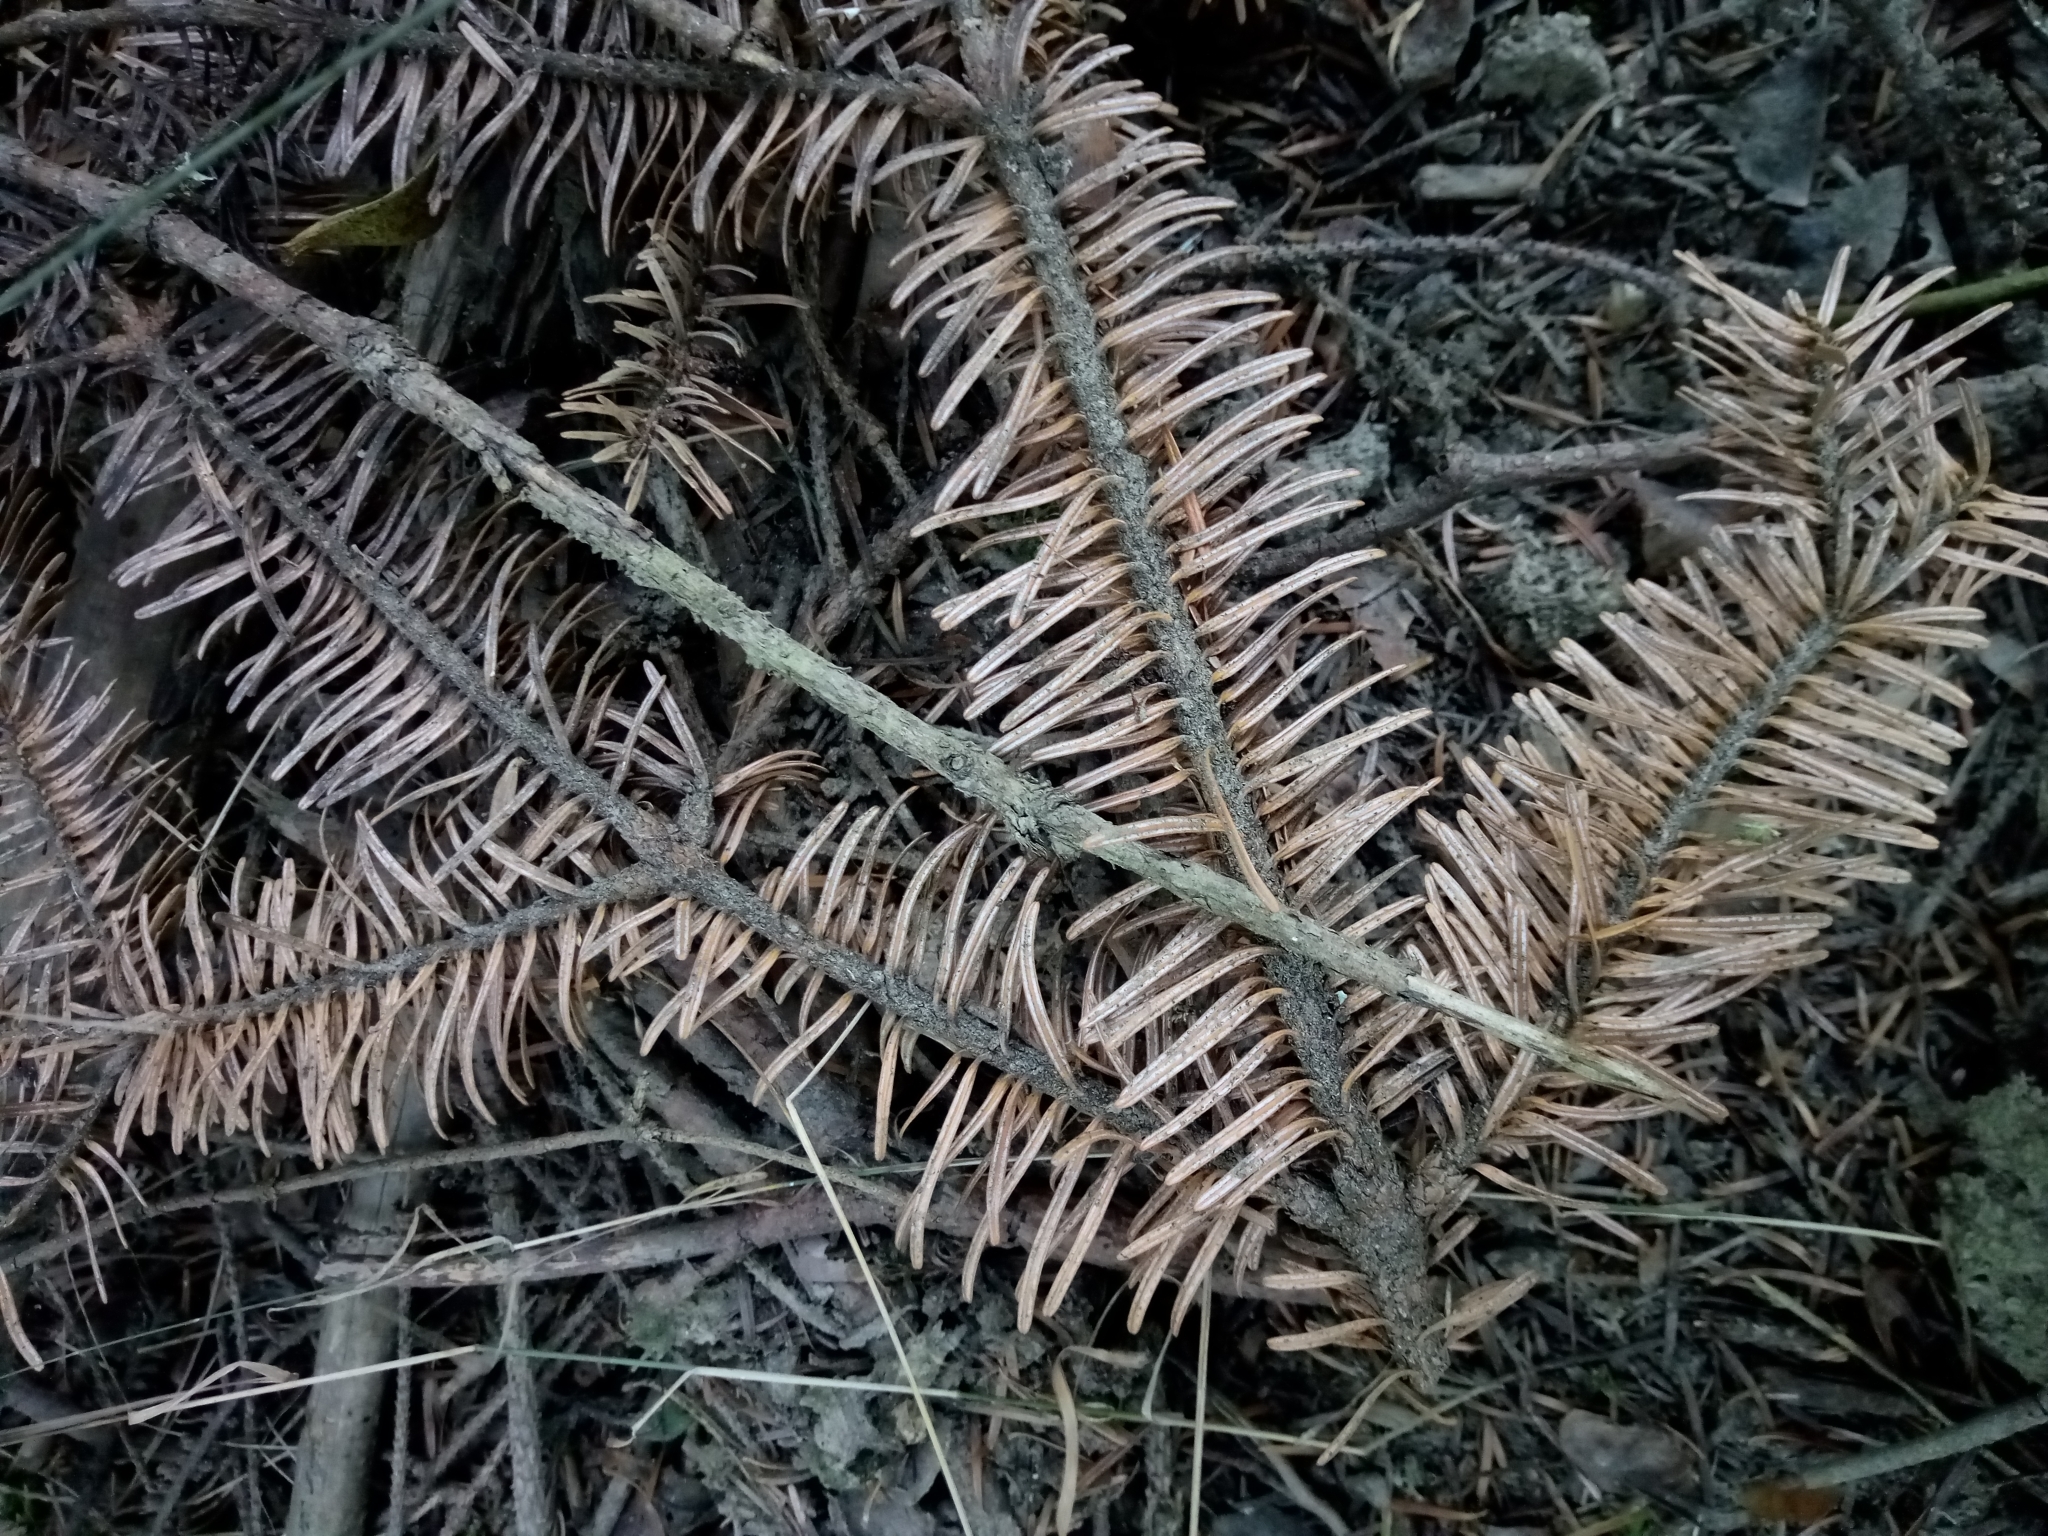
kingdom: Plantae
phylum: Tracheophyta
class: Pinopsida
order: Pinales
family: Pinaceae
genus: Abies
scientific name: Abies alba
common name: Silver fir
